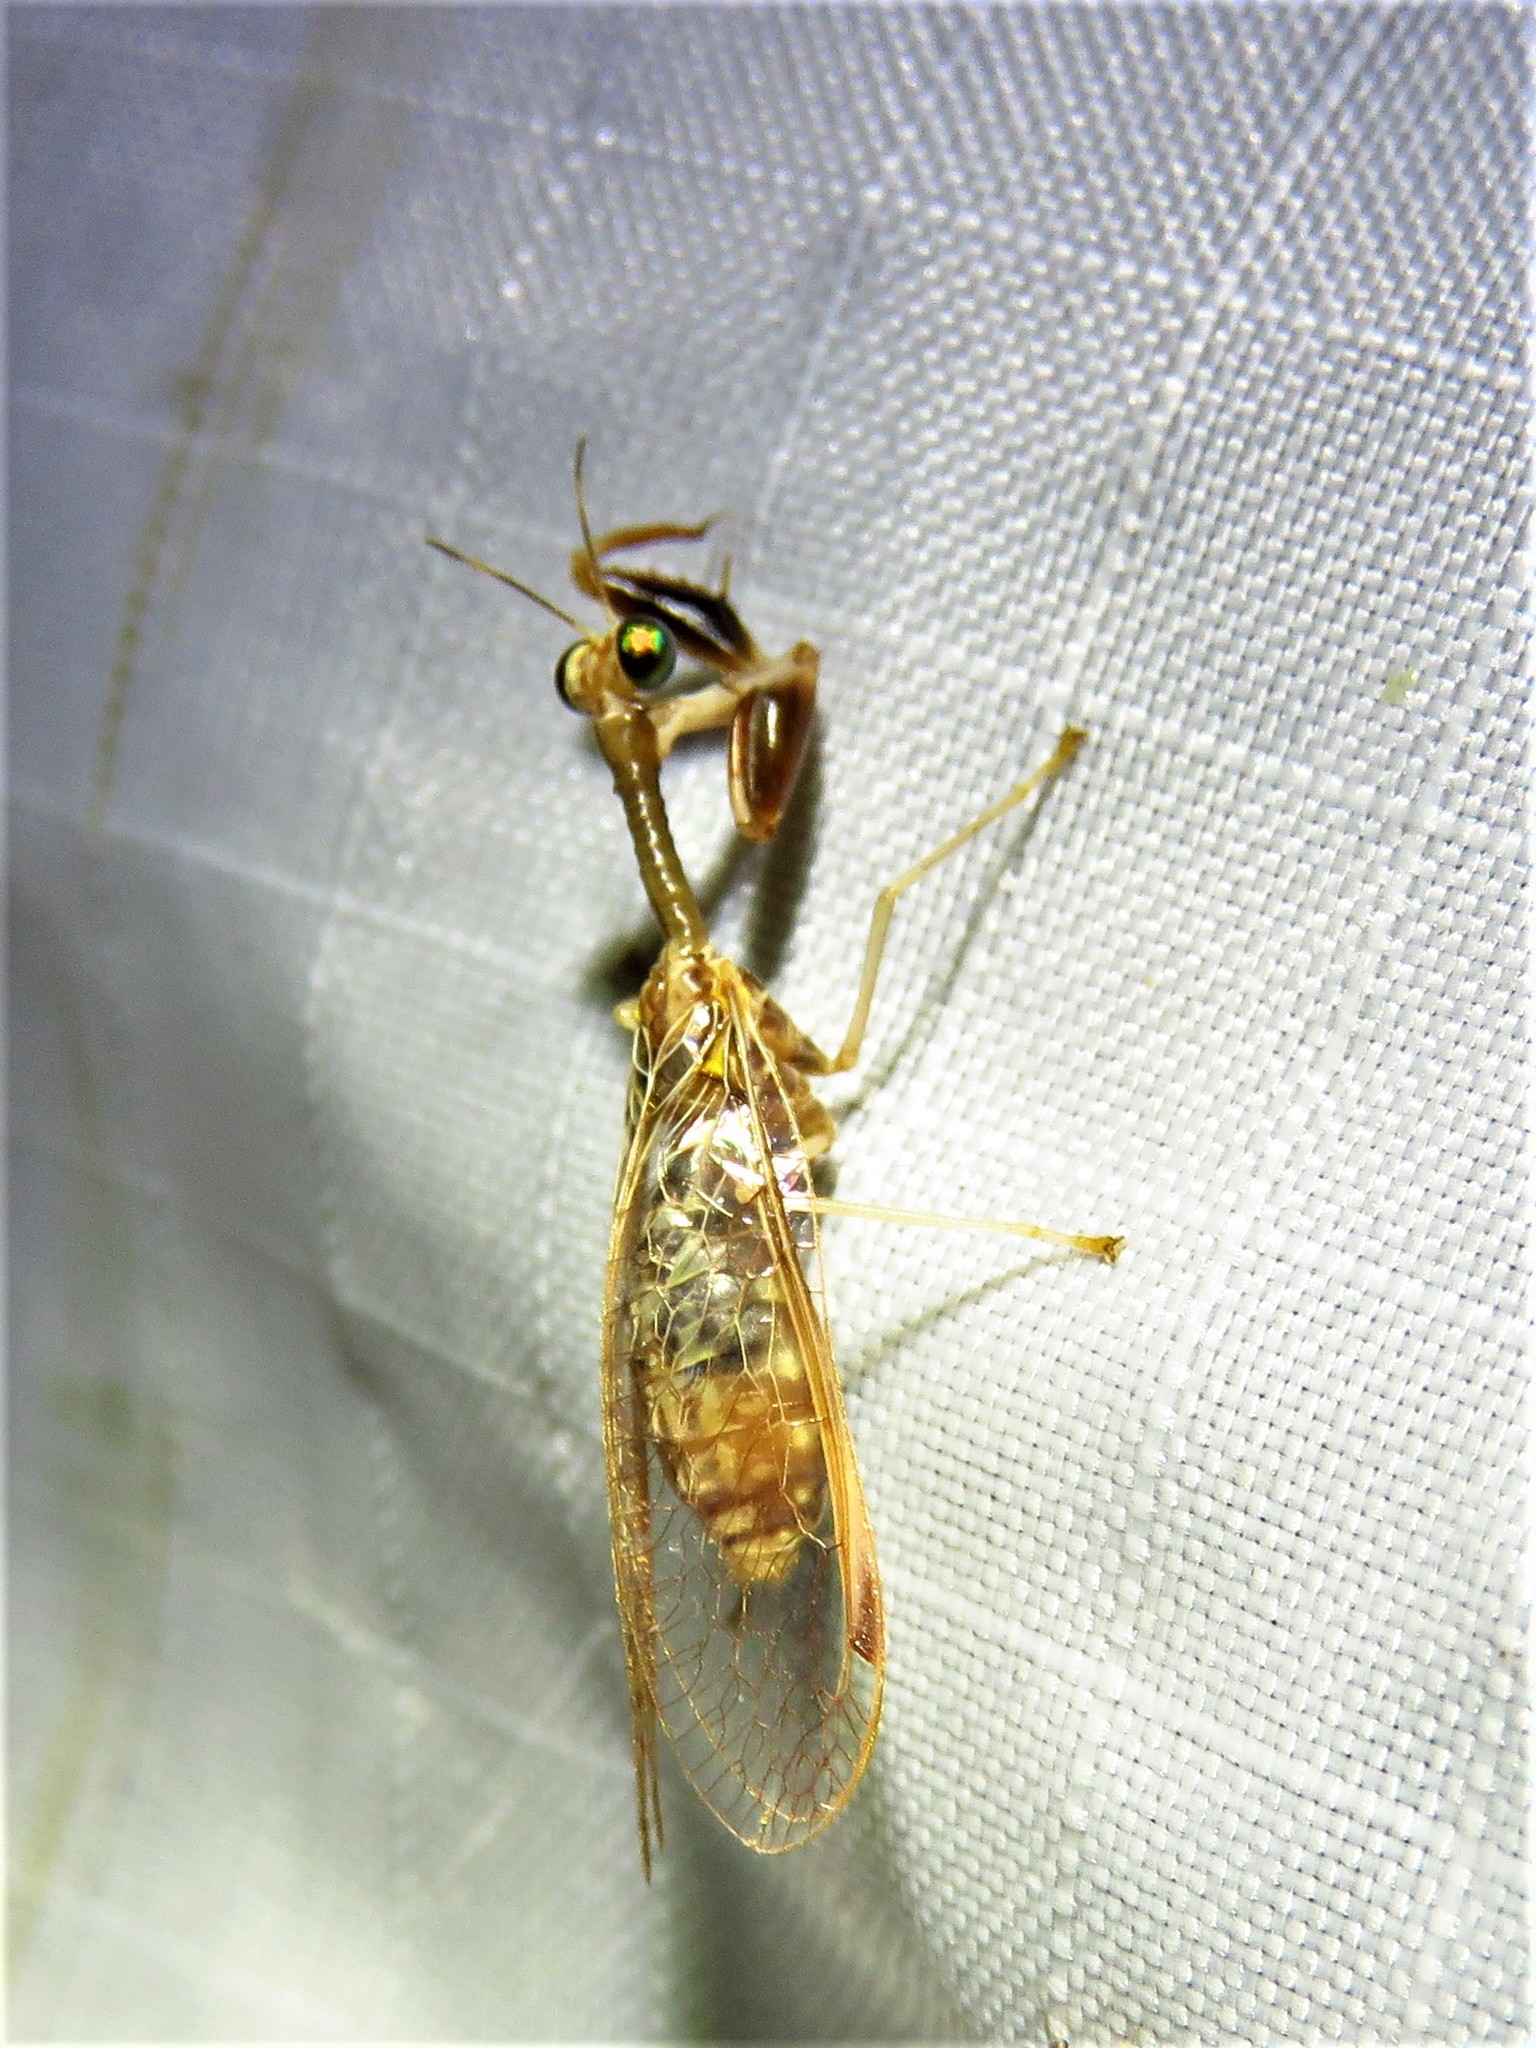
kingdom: Animalia
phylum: Arthropoda
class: Insecta
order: Neuroptera
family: Mantispidae
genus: Dicromantispa
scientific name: Dicromantispa sayi
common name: Say's mantidfly
